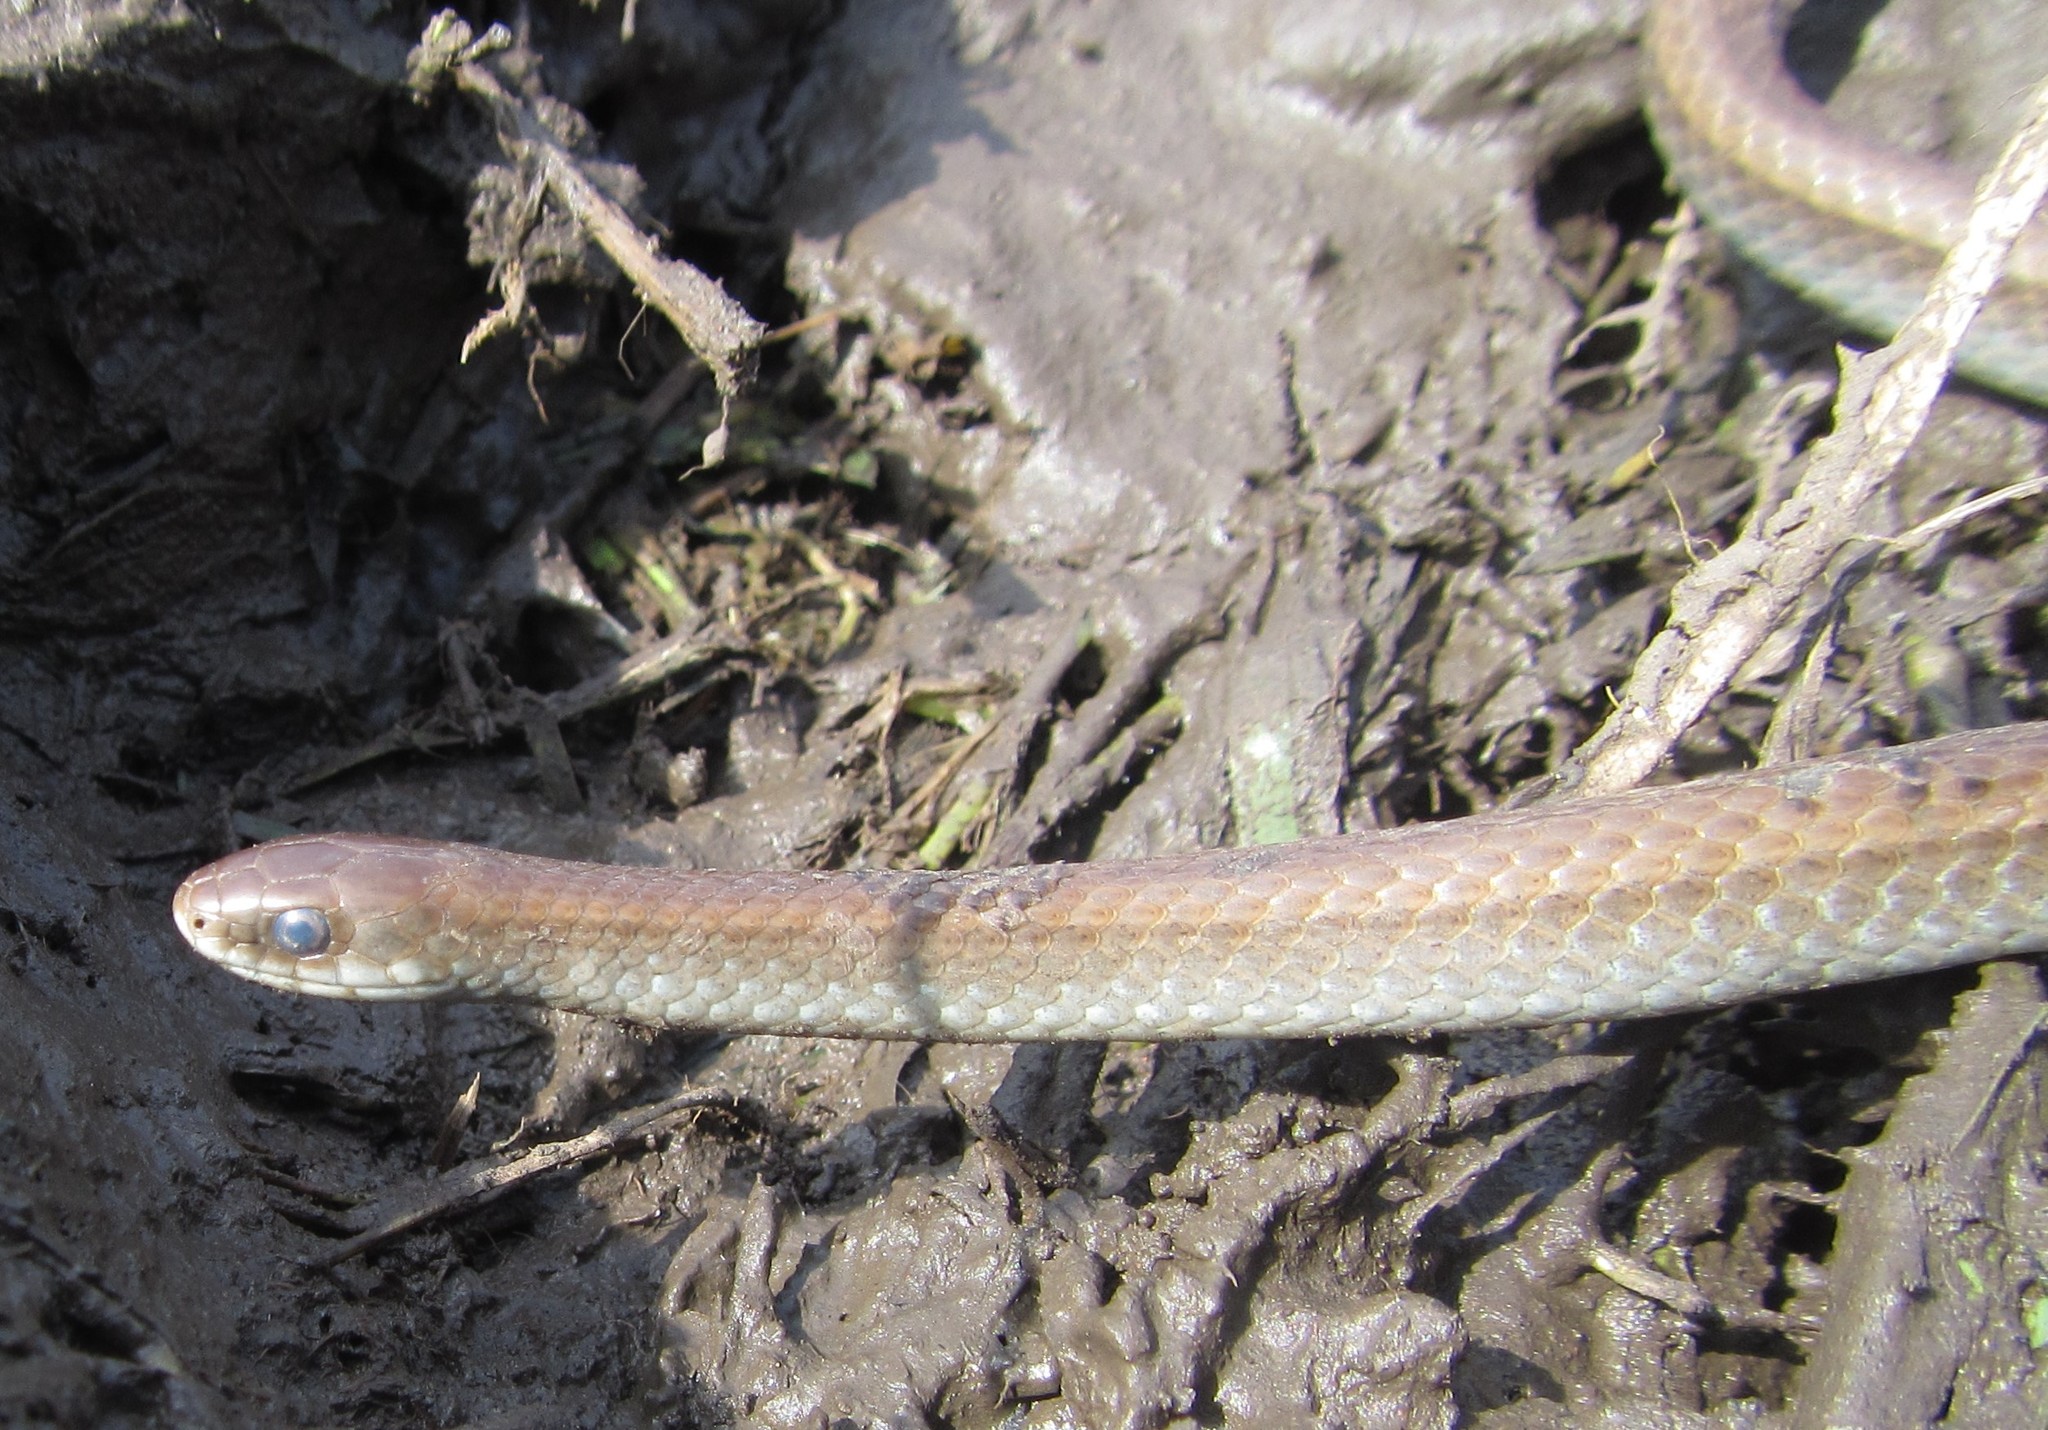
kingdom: Animalia
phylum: Chordata
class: Squamata
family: Pseudoxyrhophiidae
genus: Duberria
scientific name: Duberria lutrix
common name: Common slug eater
